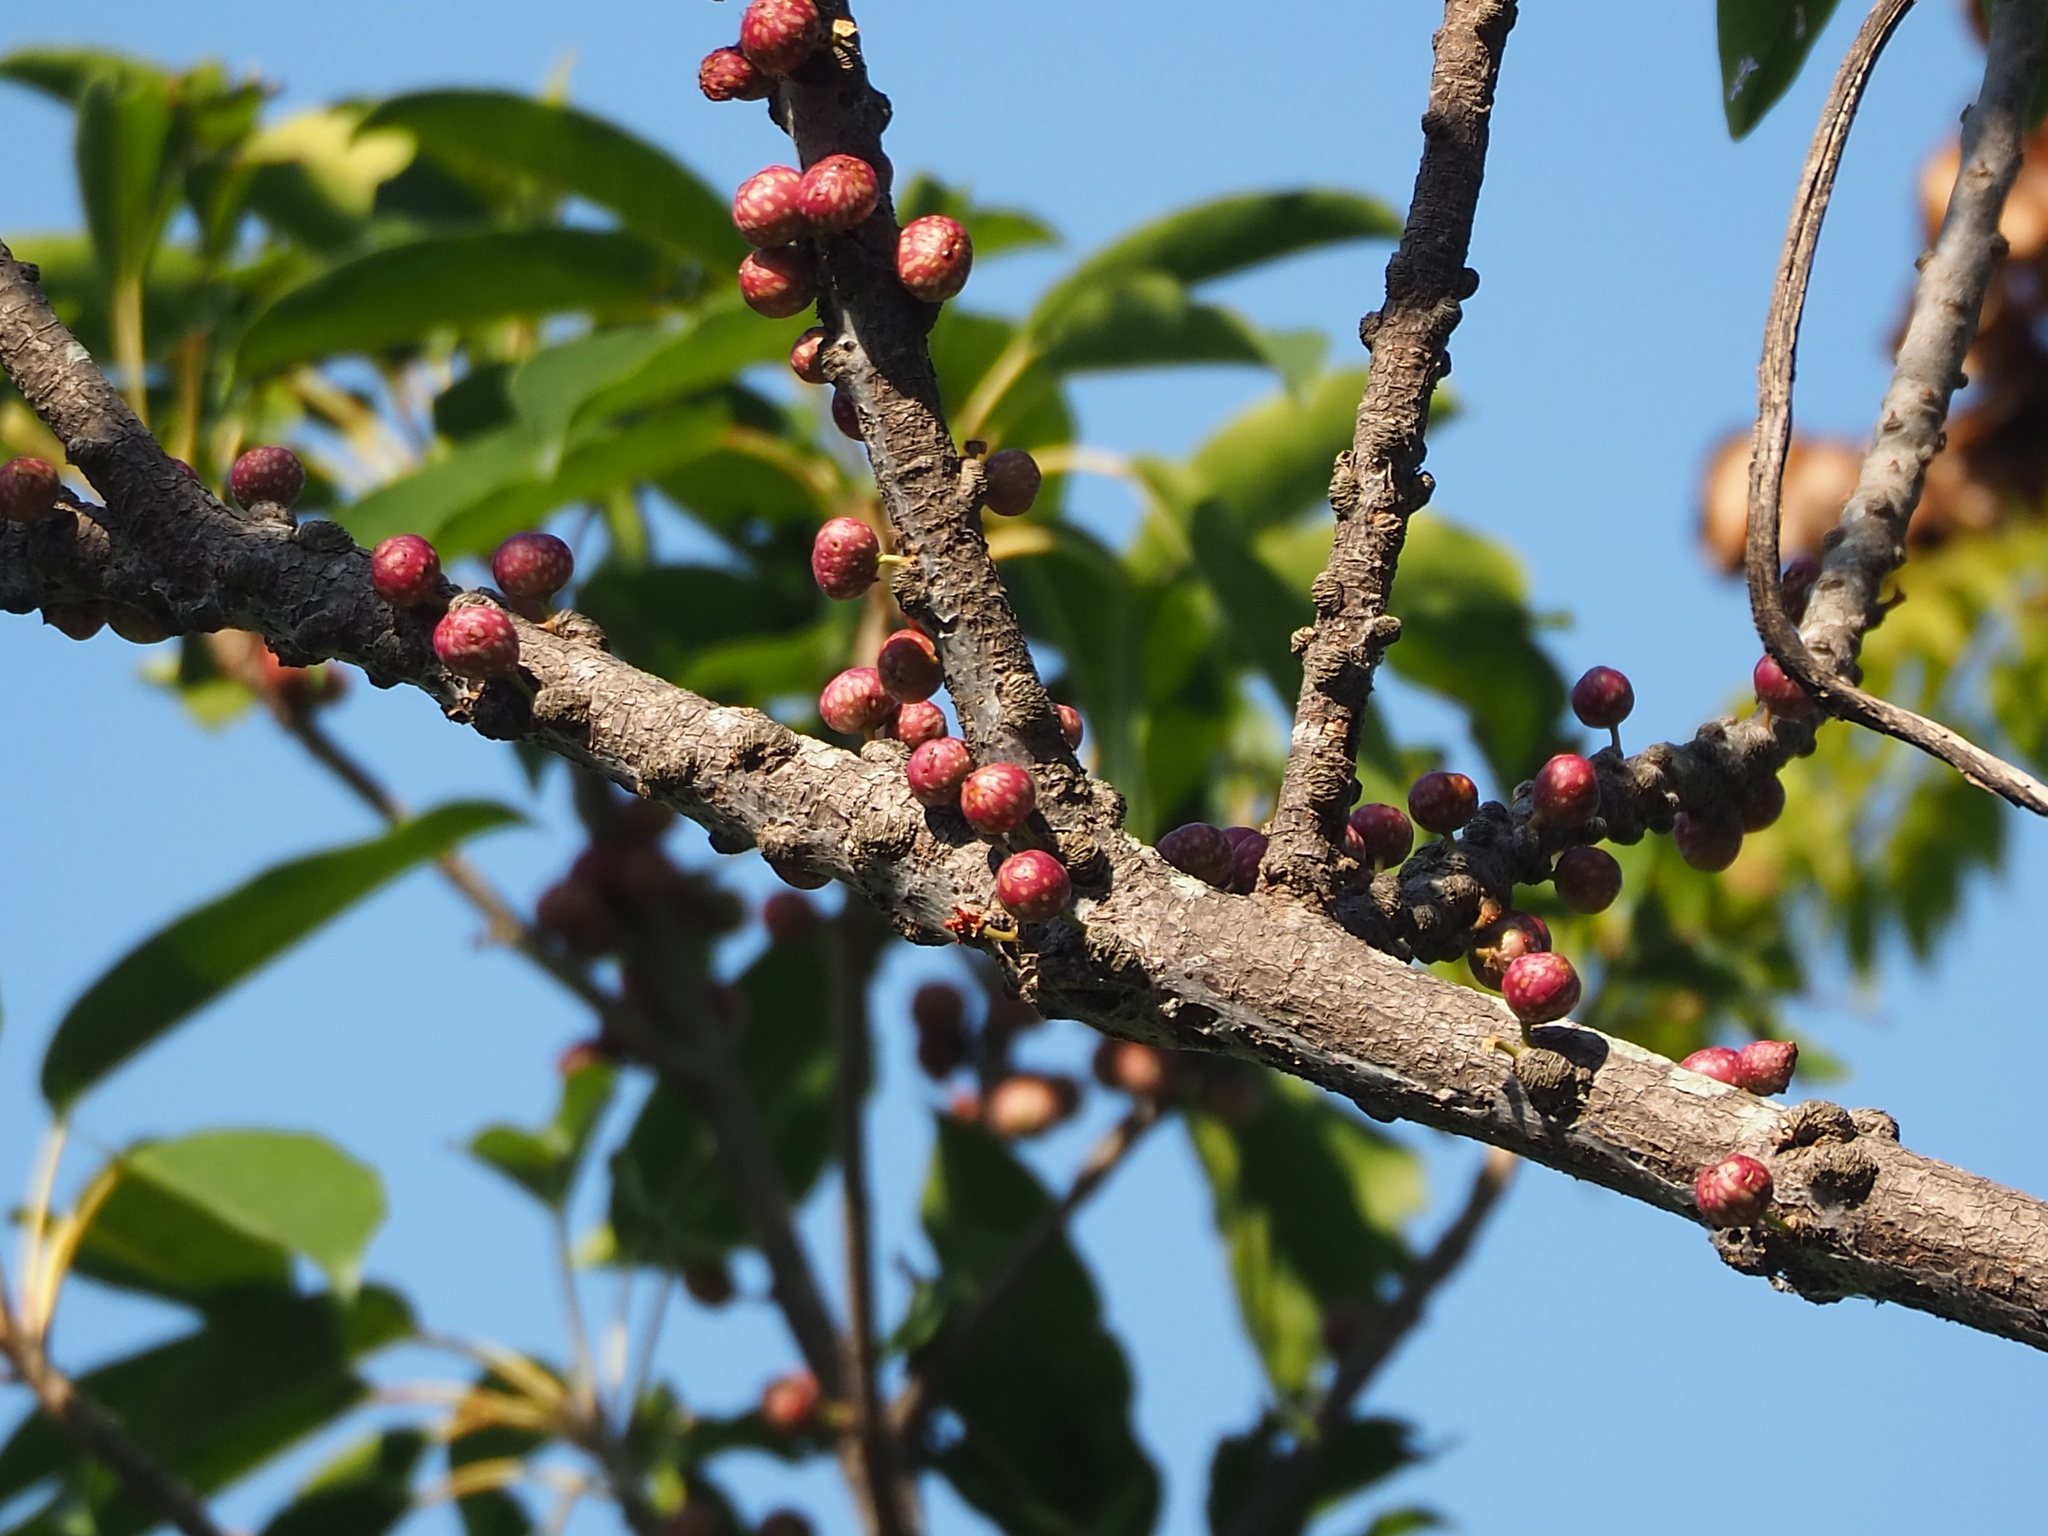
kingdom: Plantae
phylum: Tracheophyta
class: Magnoliopsida
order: Rosales
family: Moraceae
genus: Ficus
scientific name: Ficus subpisocarpa
